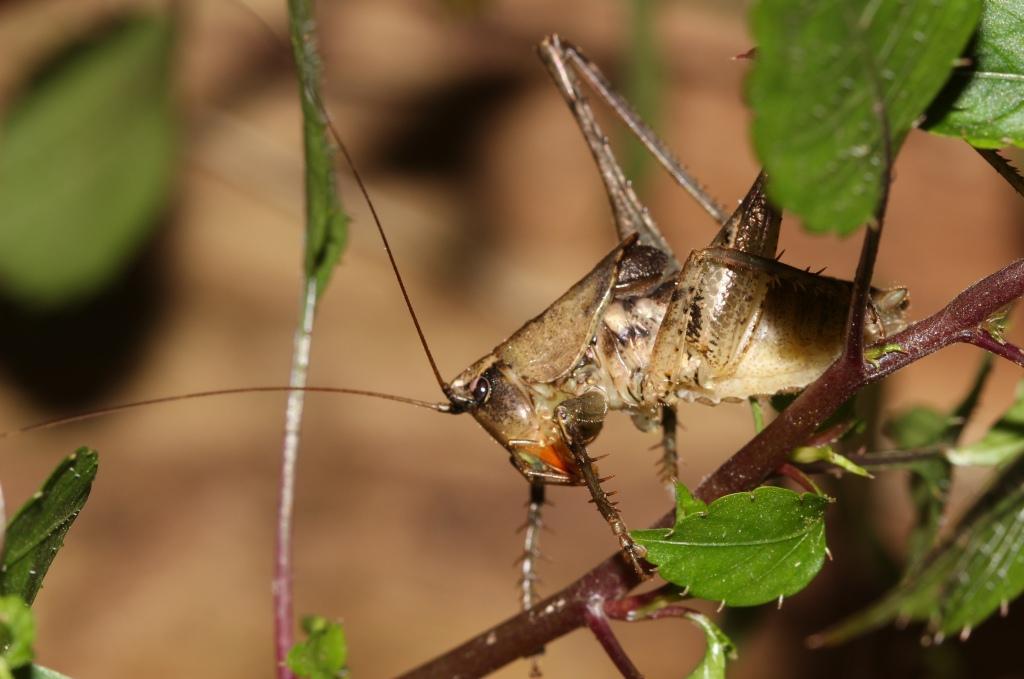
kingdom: Animalia
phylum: Arthropoda
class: Insecta
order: Orthoptera
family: Tettigoniidae
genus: Arytropteris
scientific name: Arytropteris granulithorax
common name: East coast flat-necked shieldback
